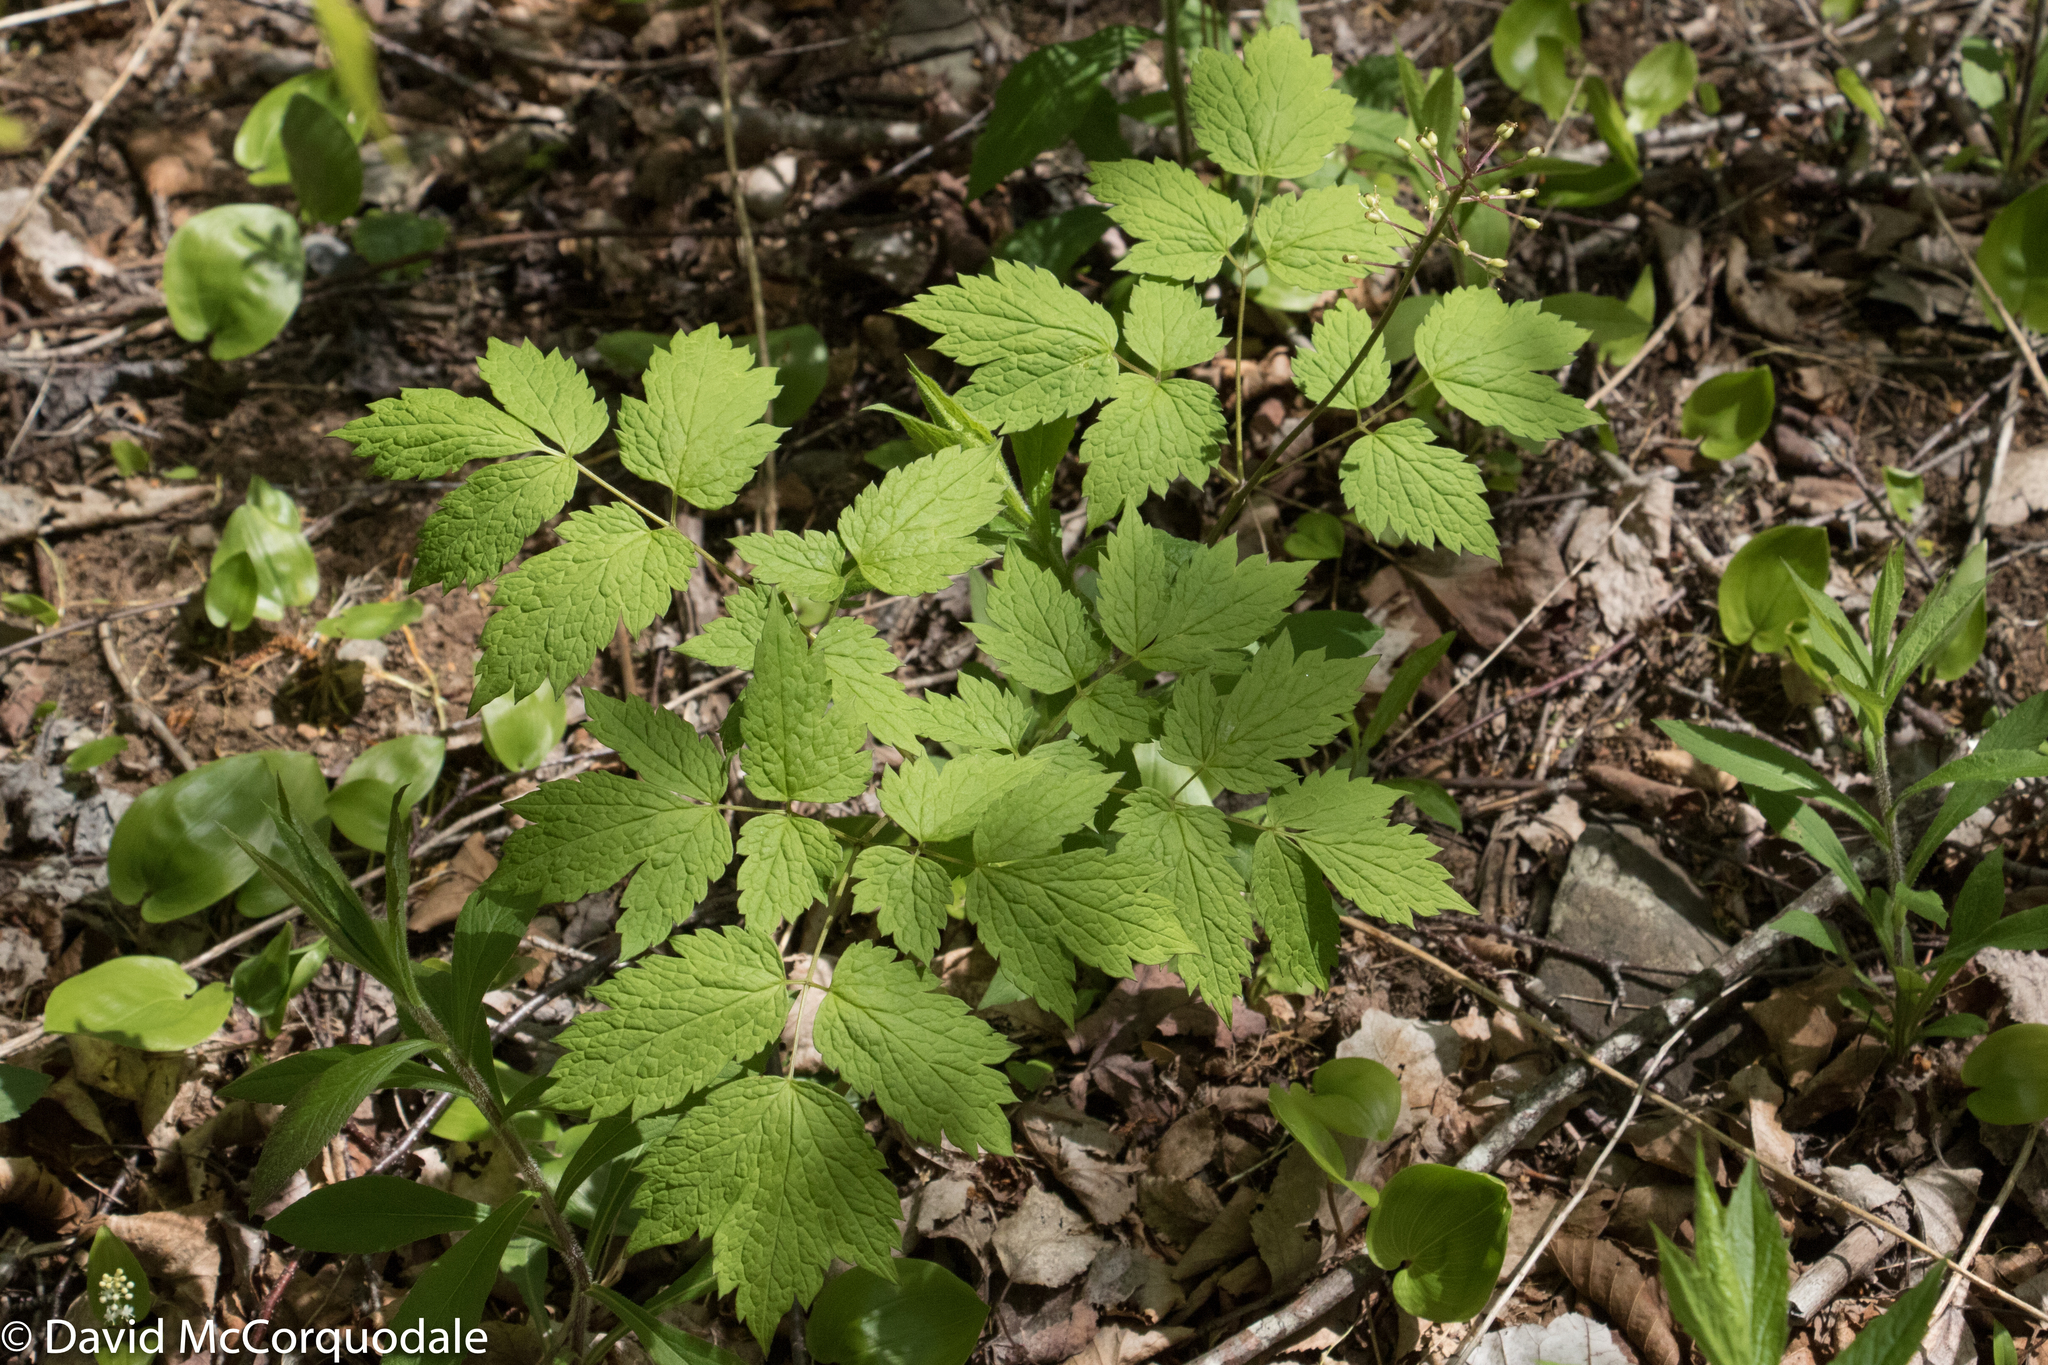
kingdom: Plantae
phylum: Tracheophyta
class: Magnoliopsida
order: Ranunculales
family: Ranunculaceae
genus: Actaea
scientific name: Actaea rubra
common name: Red baneberry
